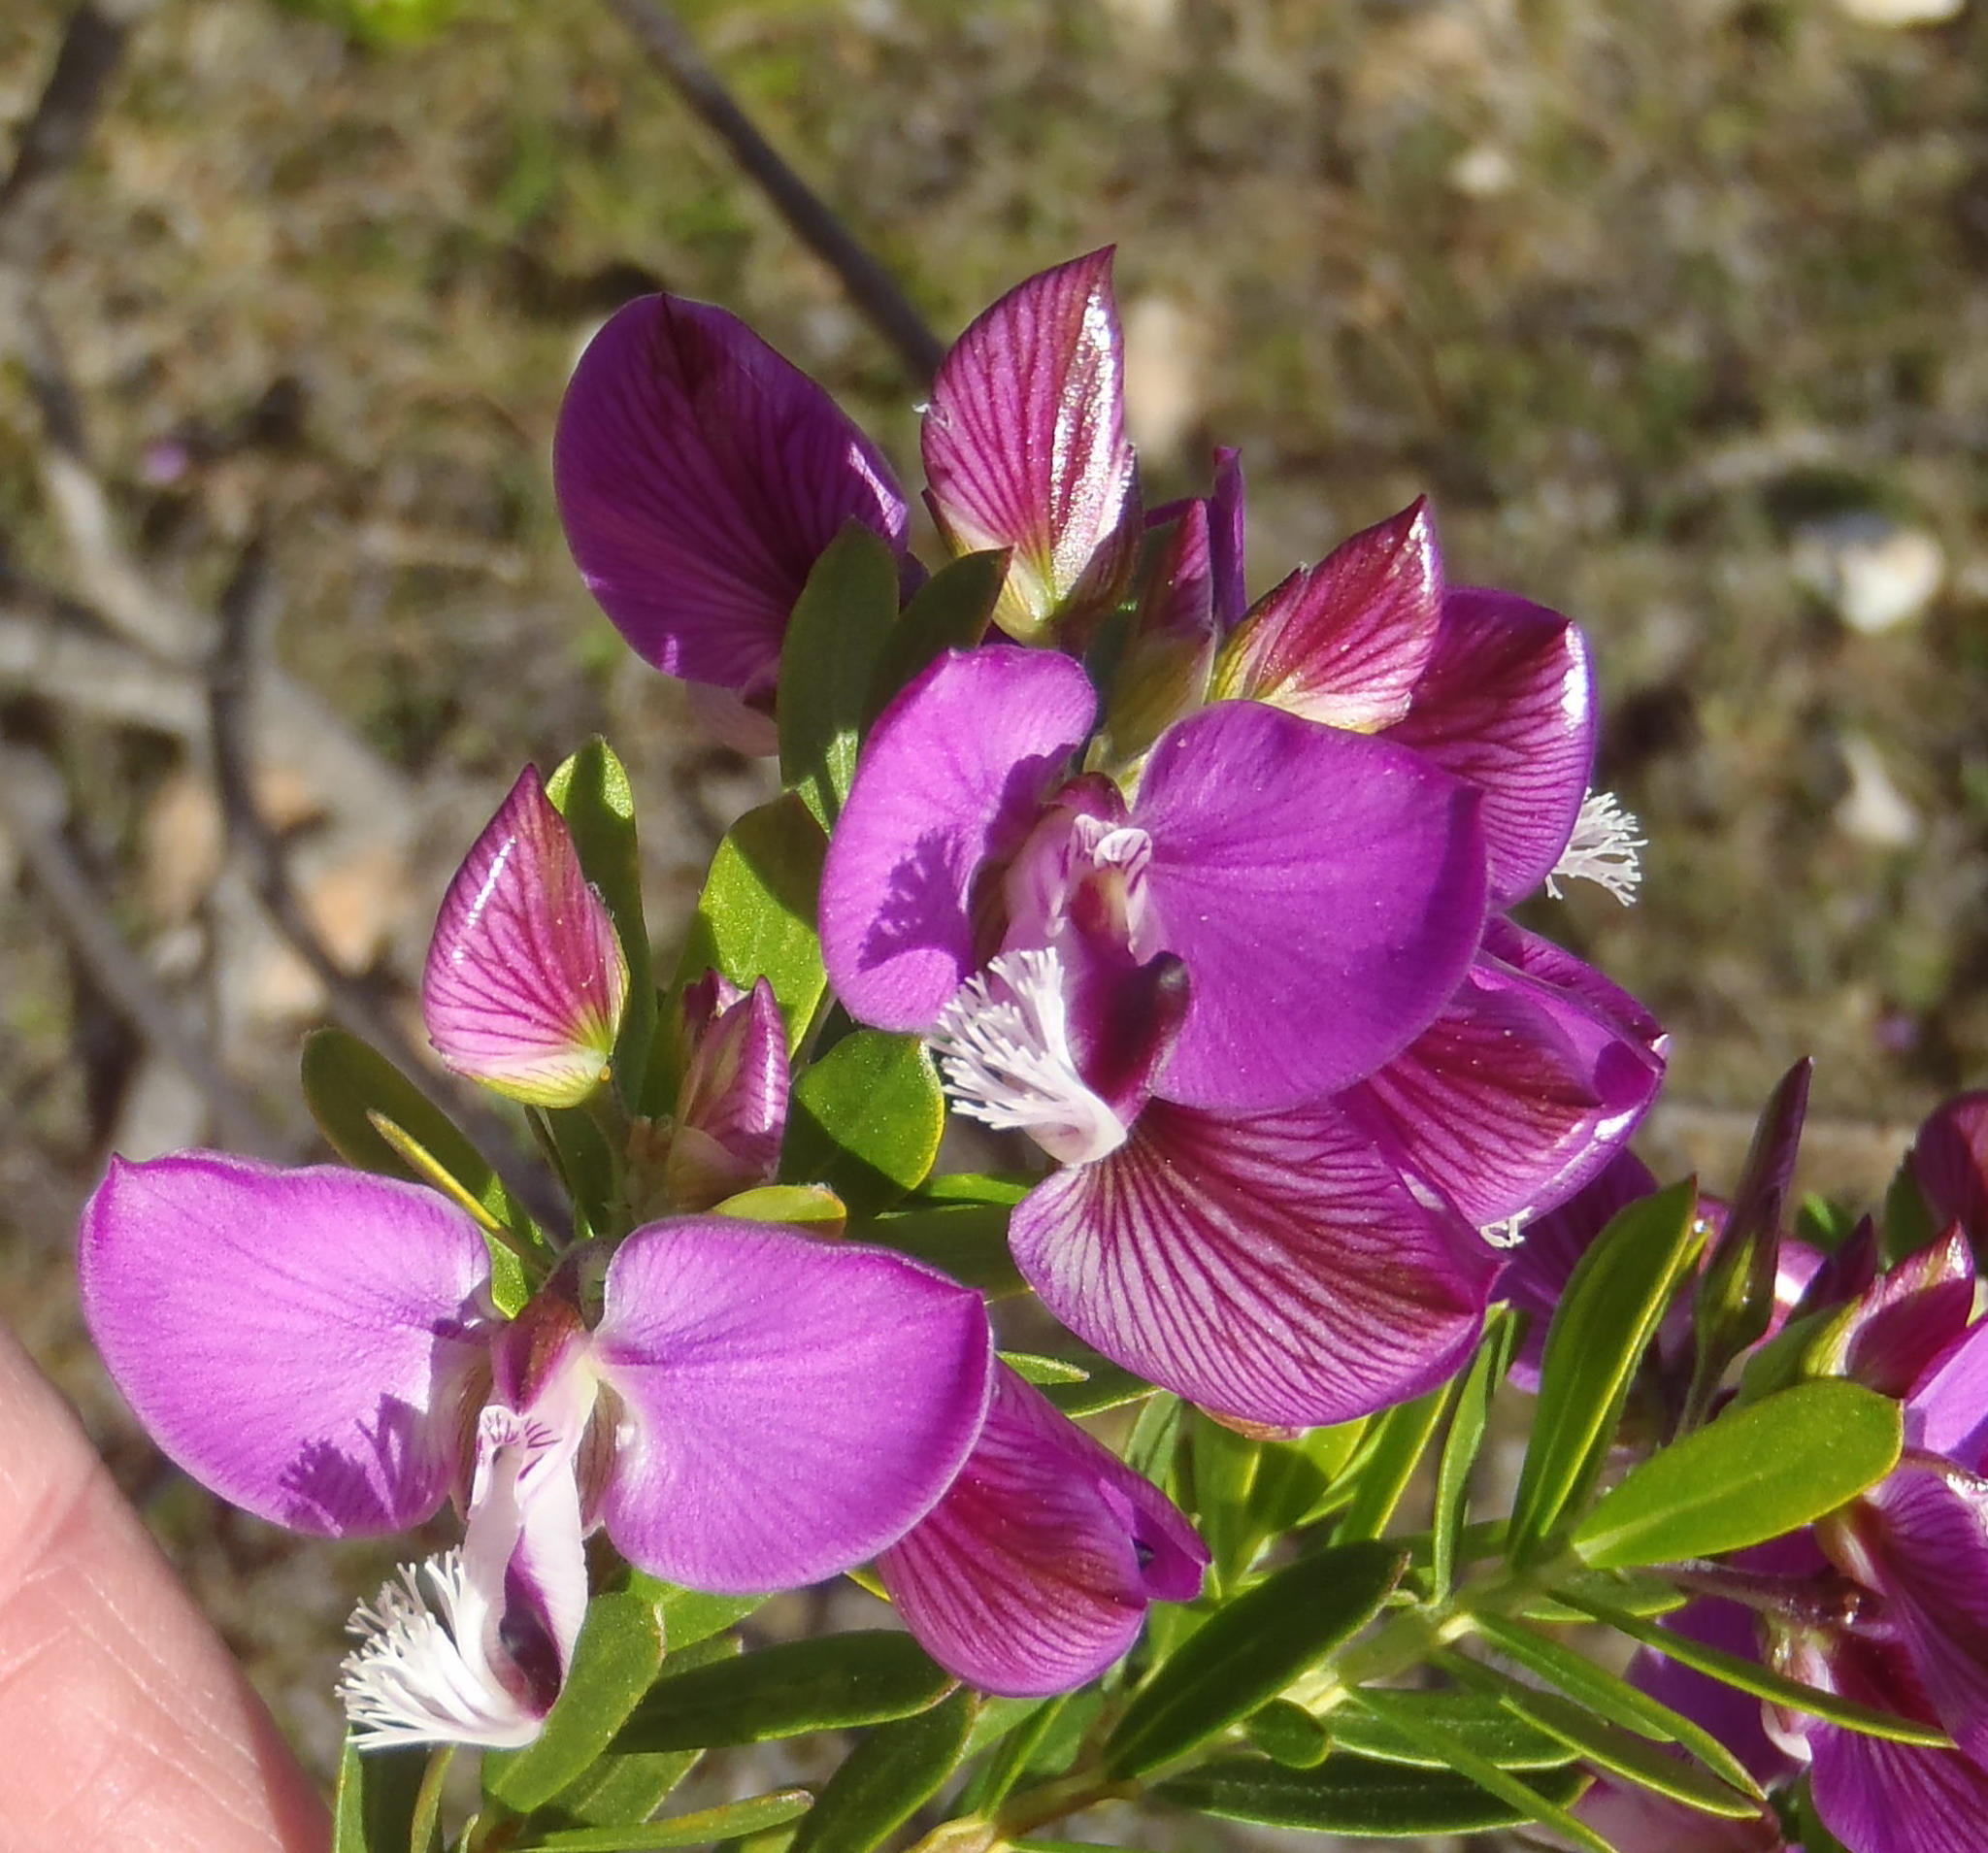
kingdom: Plantae
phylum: Tracheophyta
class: Magnoliopsida
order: Fabales
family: Polygalaceae
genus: Polygala
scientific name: Polygala myrtifolia
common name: Myrtle-leaf milkwort
